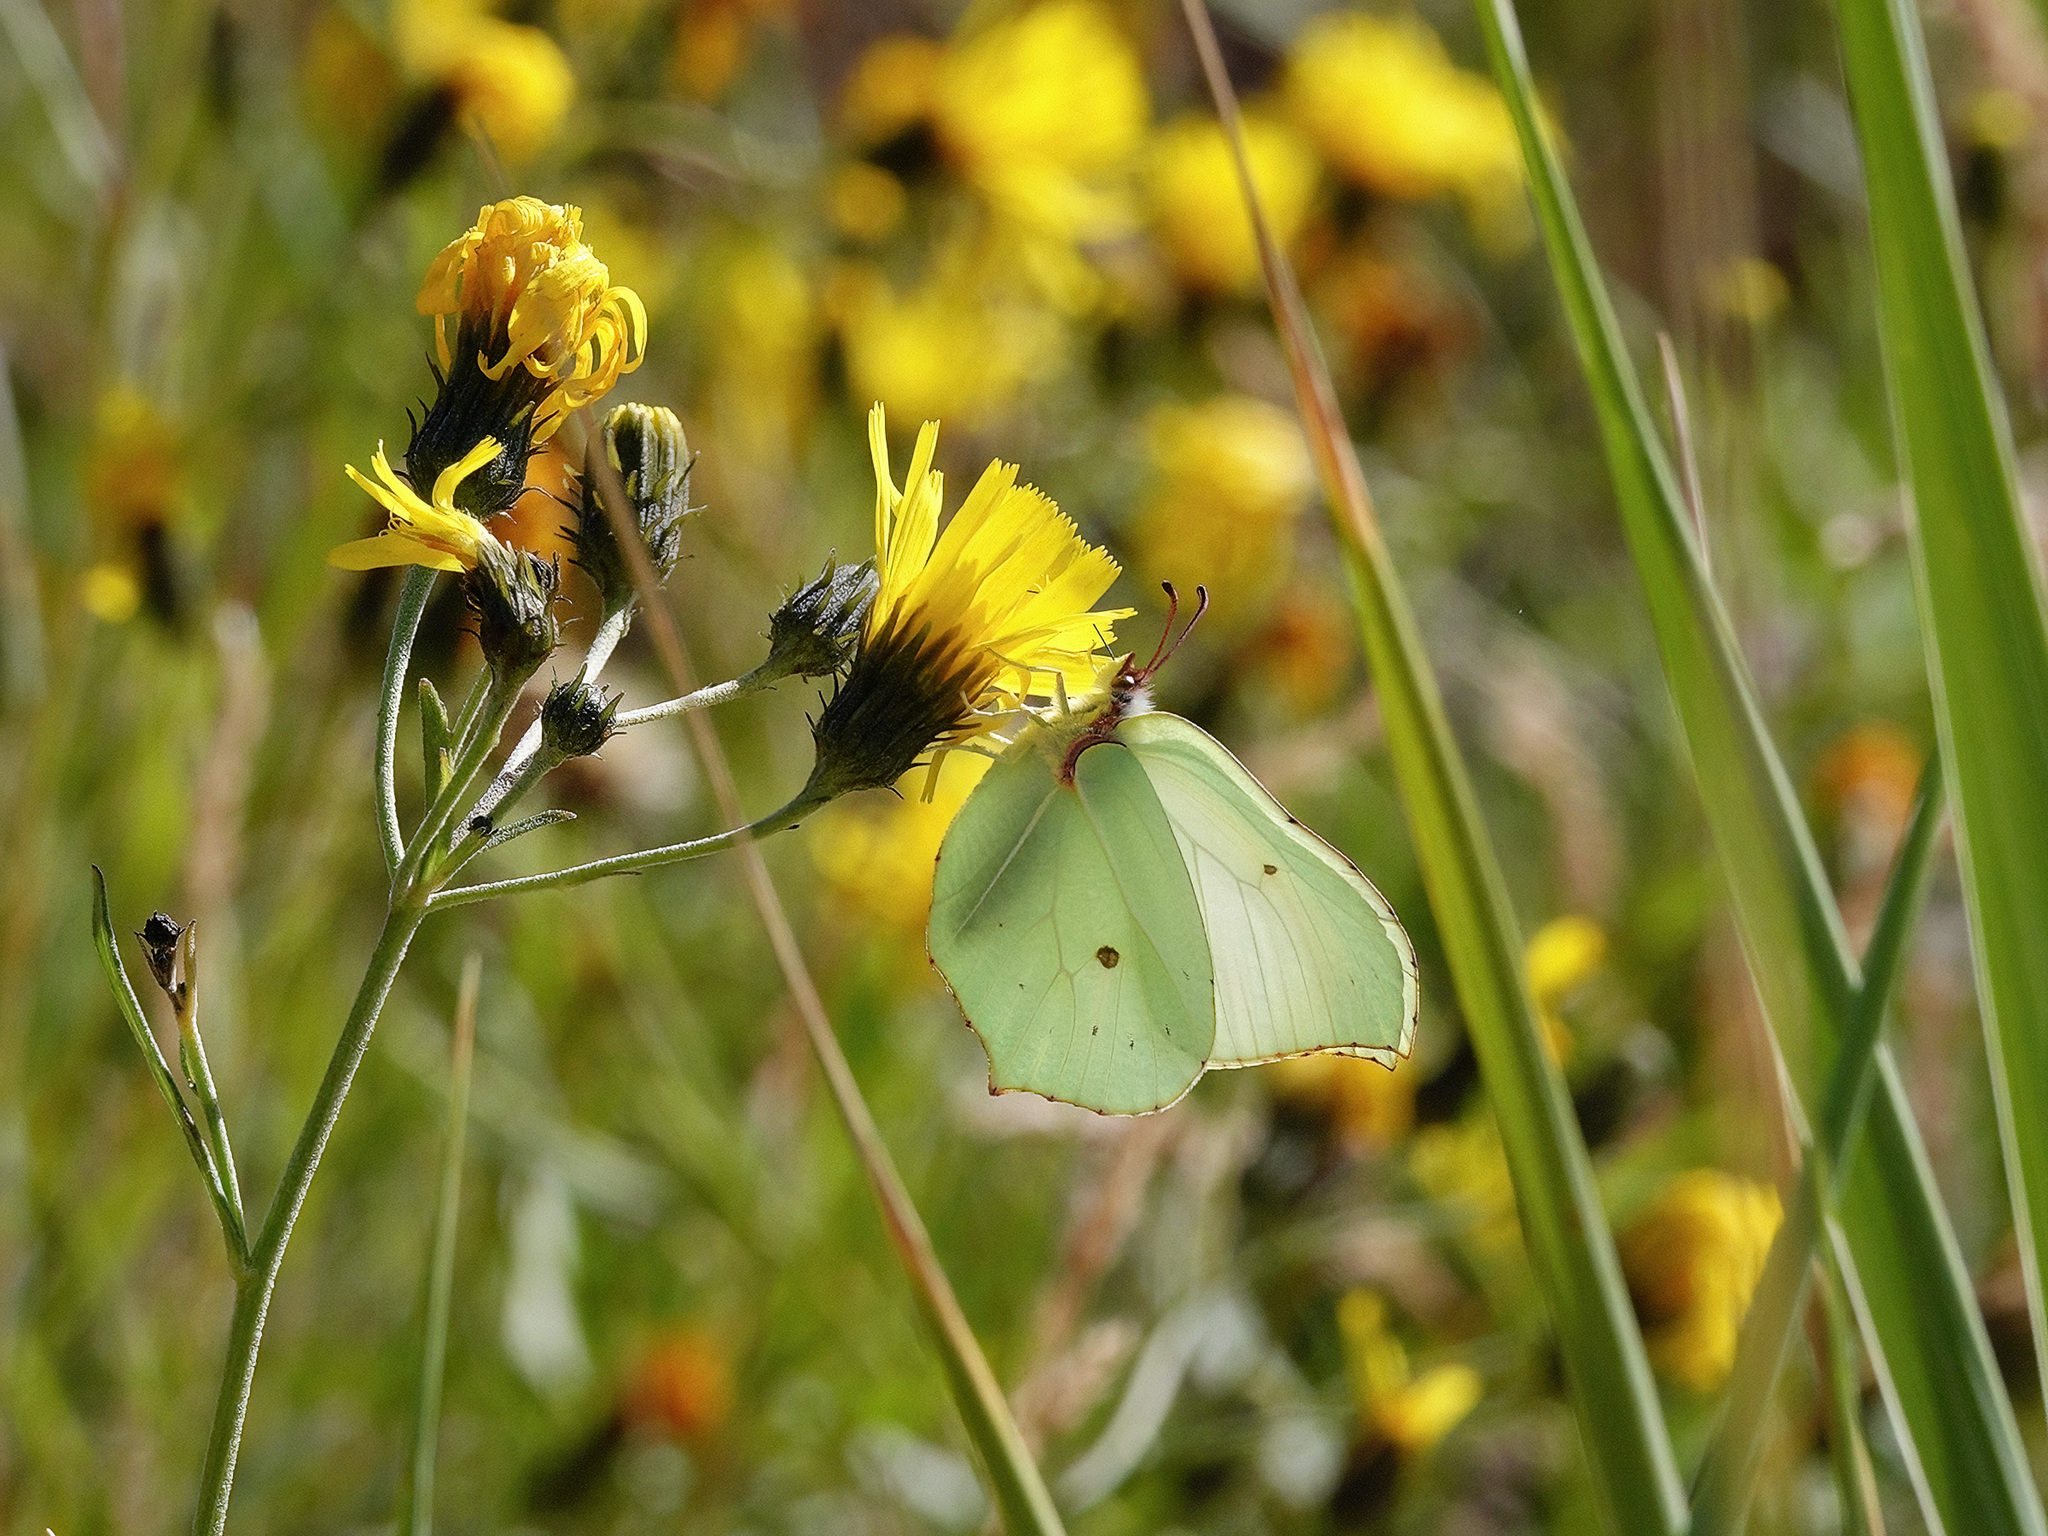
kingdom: Animalia
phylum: Arthropoda
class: Insecta
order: Lepidoptera
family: Pieridae
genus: Gonepteryx
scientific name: Gonepteryx rhamni
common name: Brimstone
